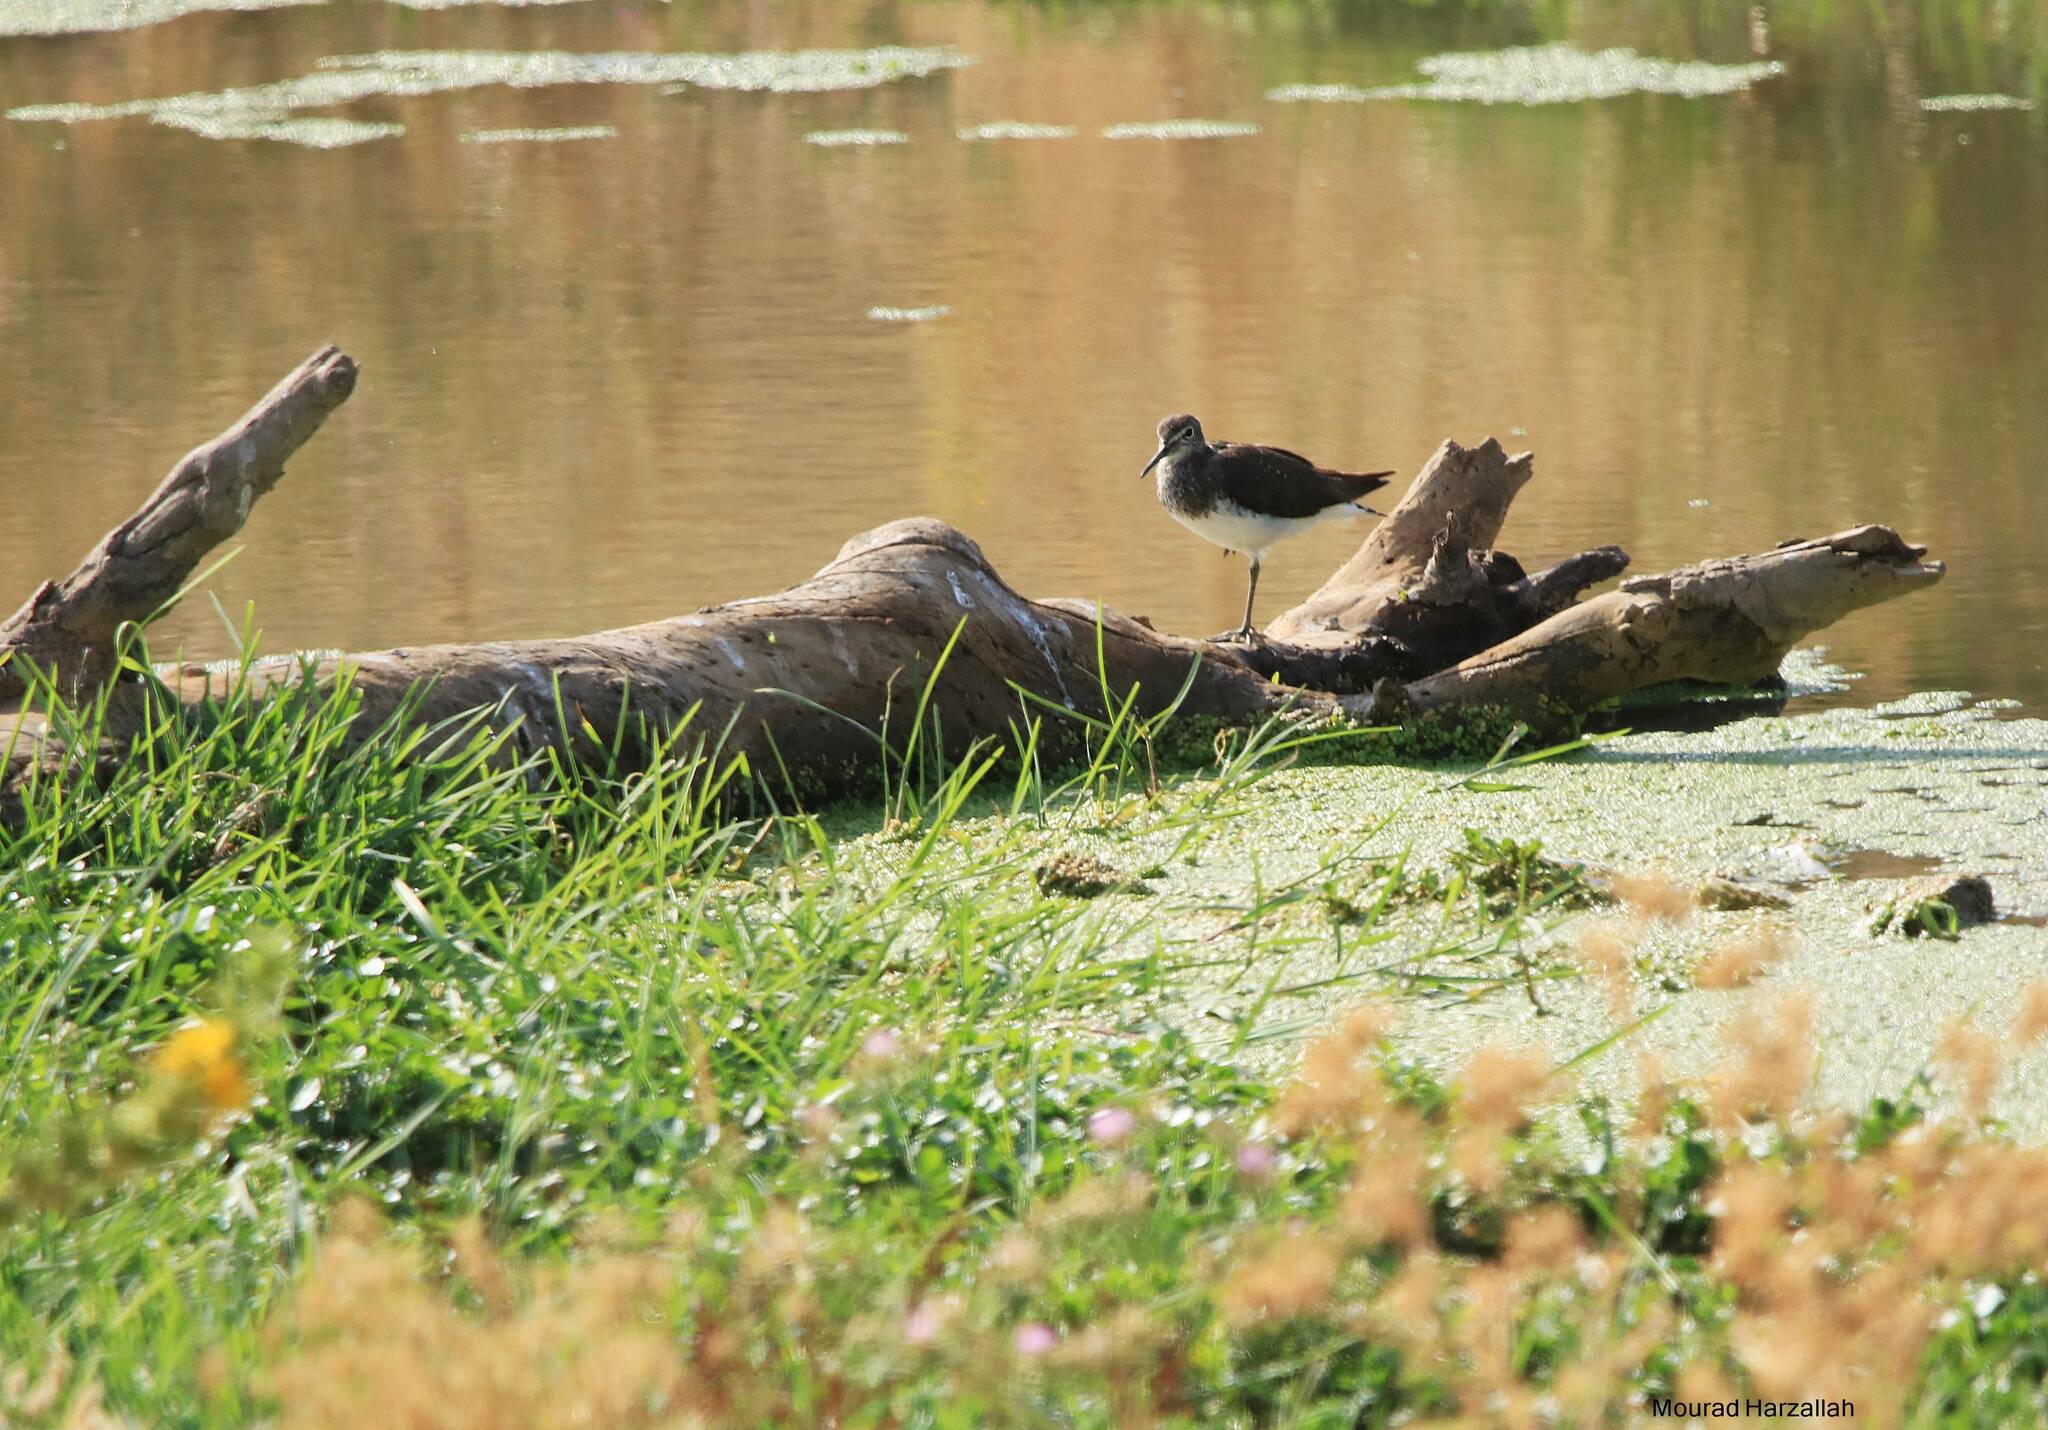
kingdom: Animalia
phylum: Chordata
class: Aves
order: Charadriiformes
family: Scolopacidae
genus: Tringa
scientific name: Tringa ochropus
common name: Green sandpiper
